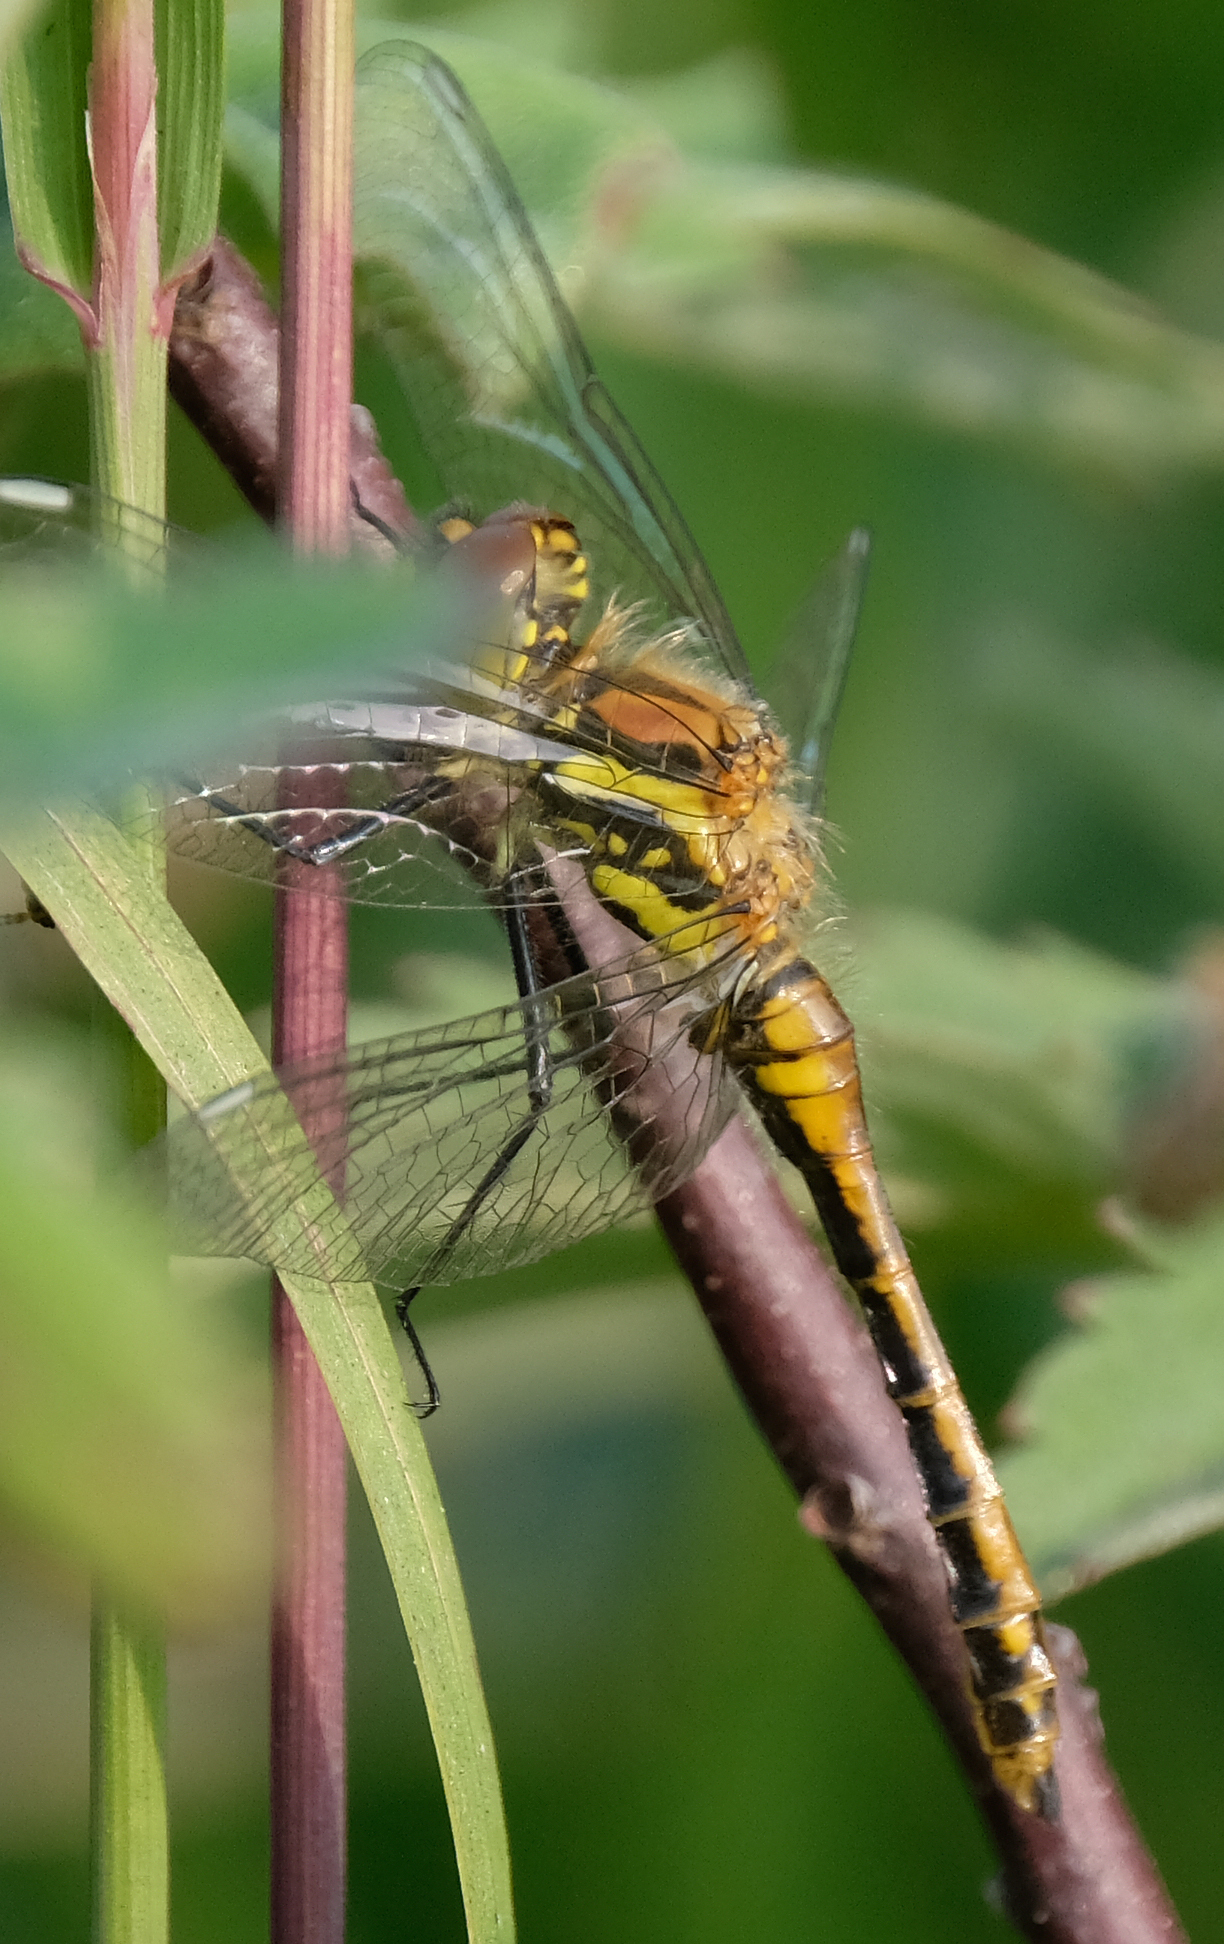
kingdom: Animalia
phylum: Arthropoda
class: Insecta
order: Odonata
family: Libellulidae
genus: Sympetrum
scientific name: Sympetrum danae
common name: Black darter
